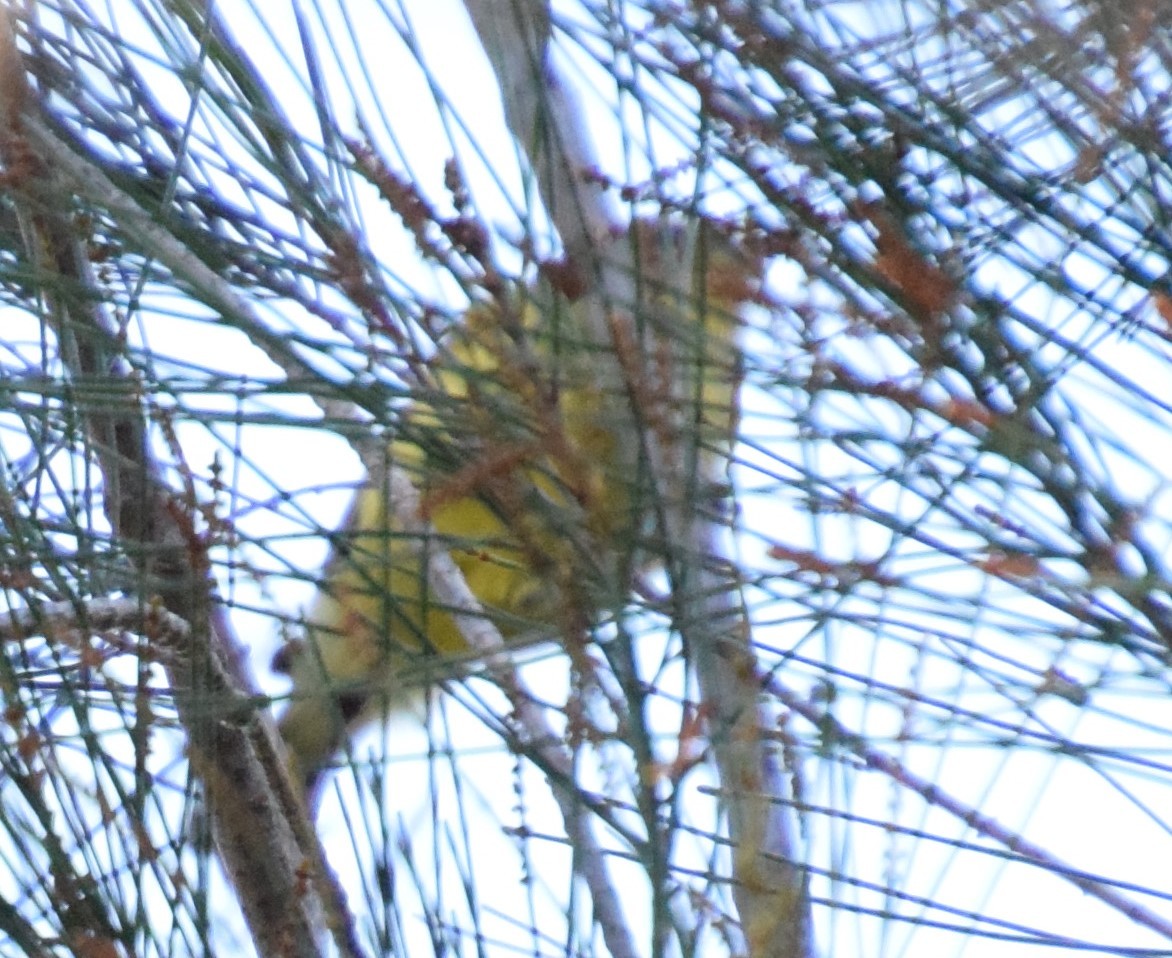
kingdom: Animalia
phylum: Chordata
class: Aves
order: Passeriformes
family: Acanthizidae
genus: Acanthiza
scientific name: Acanthiza nana
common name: Yellow thornbill
